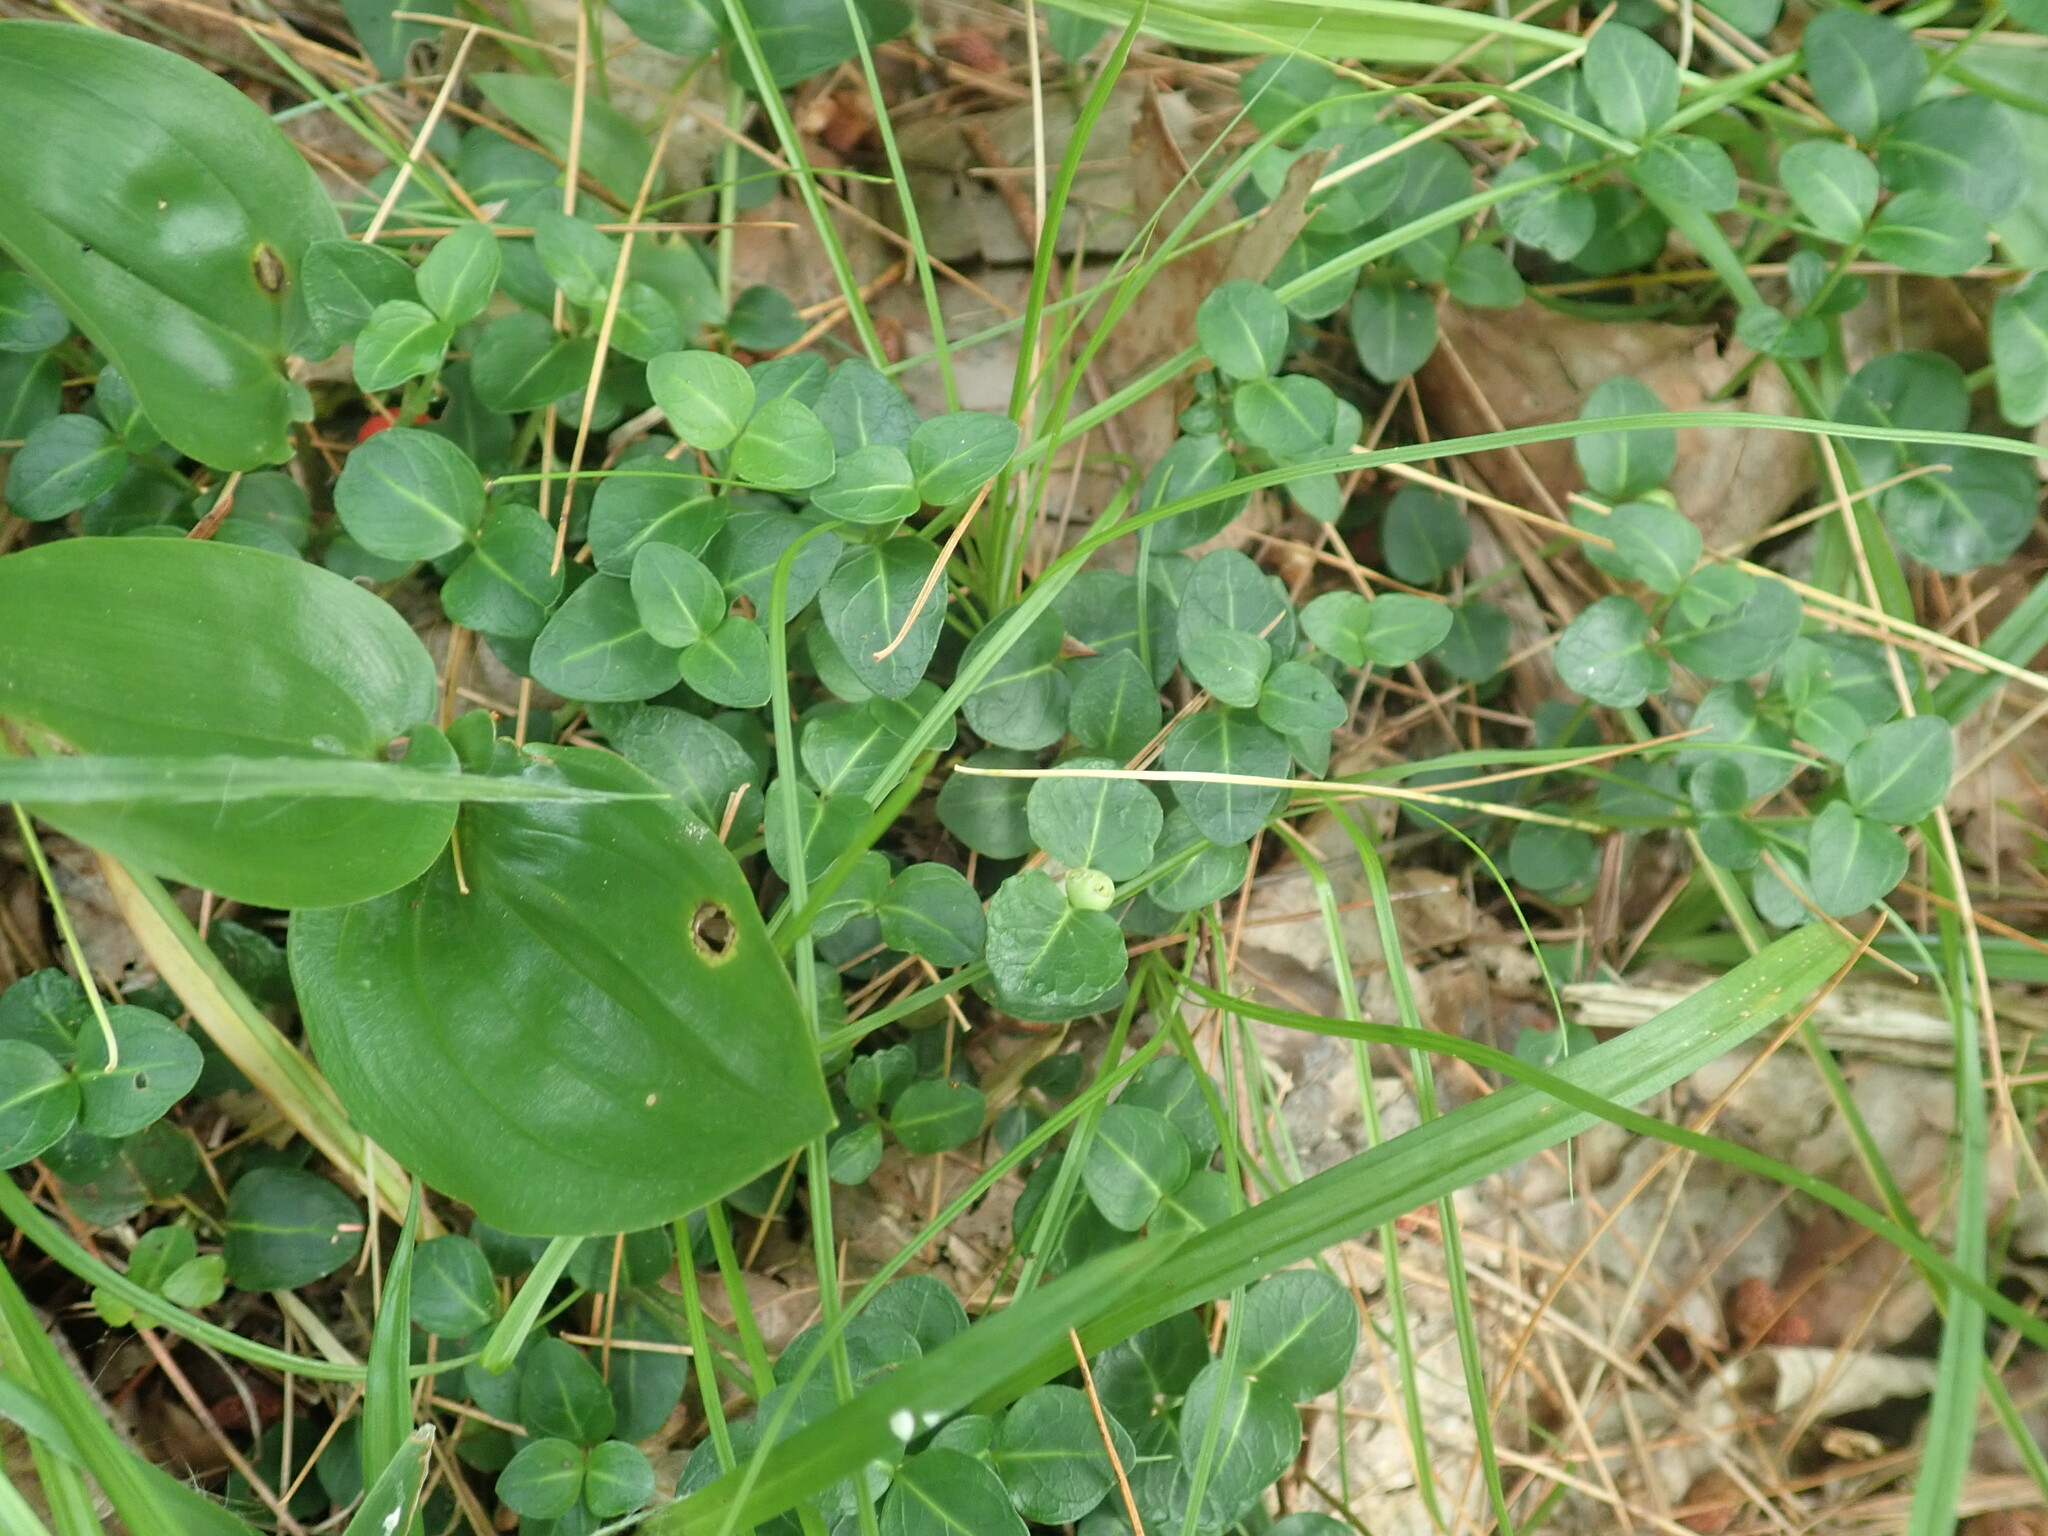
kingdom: Plantae
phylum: Tracheophyta
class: Magnoliopsida
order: Gentianales
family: Rubiaceae
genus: Mitchella
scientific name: Mitchella repens
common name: Partridge-berry
